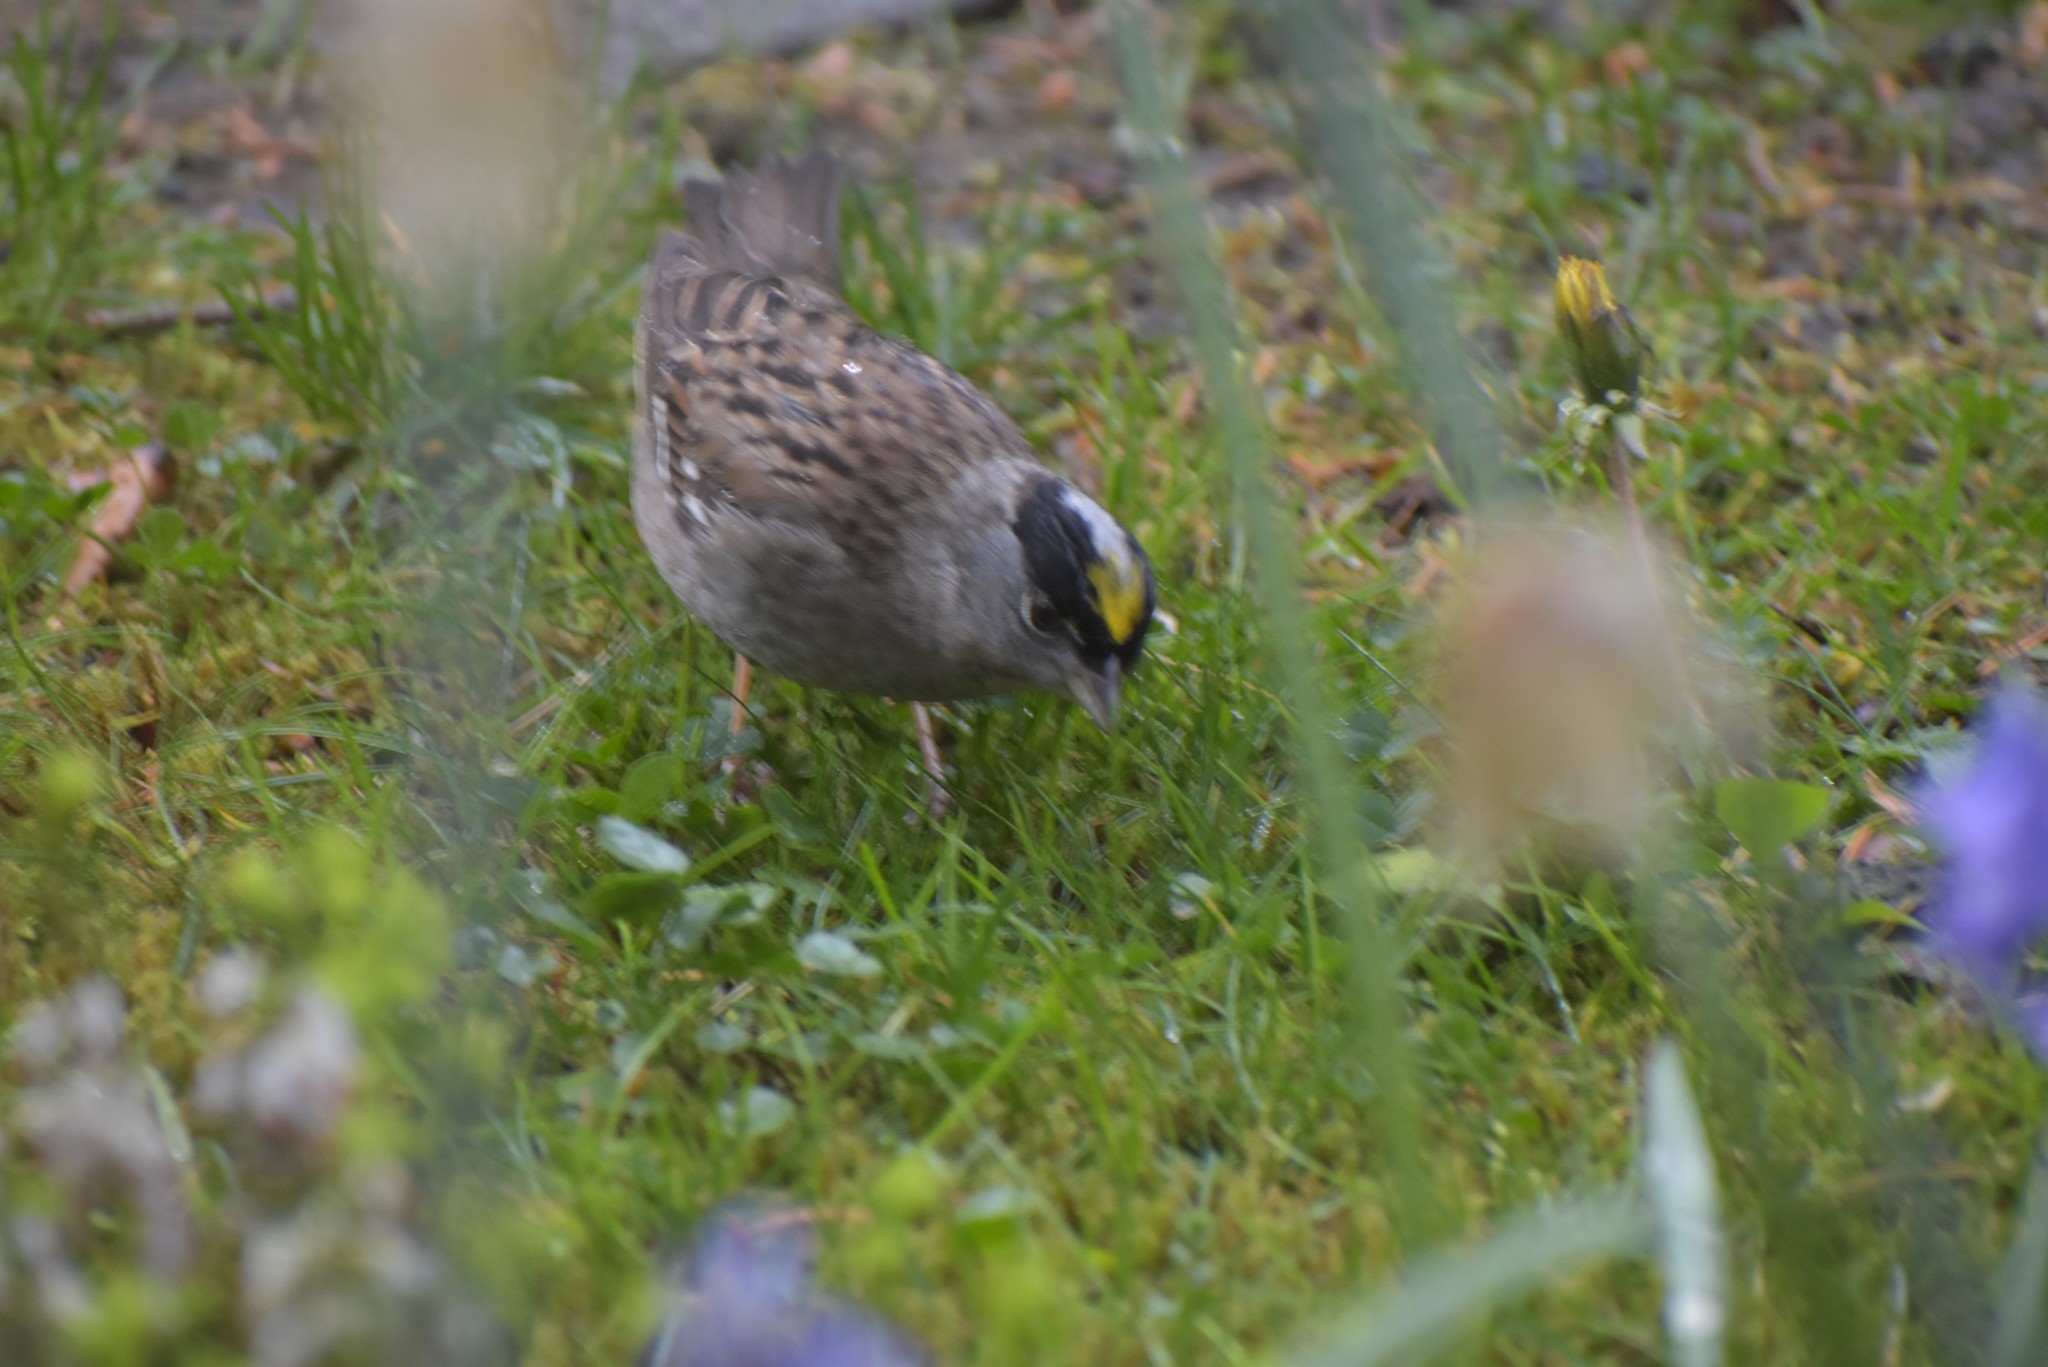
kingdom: Animalia
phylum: Chordata
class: Aves
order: Passeriformes
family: Passerellidae
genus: Zonotrichia
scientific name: Zonotrichia atricapilla
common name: Golden-crowned sparrow
